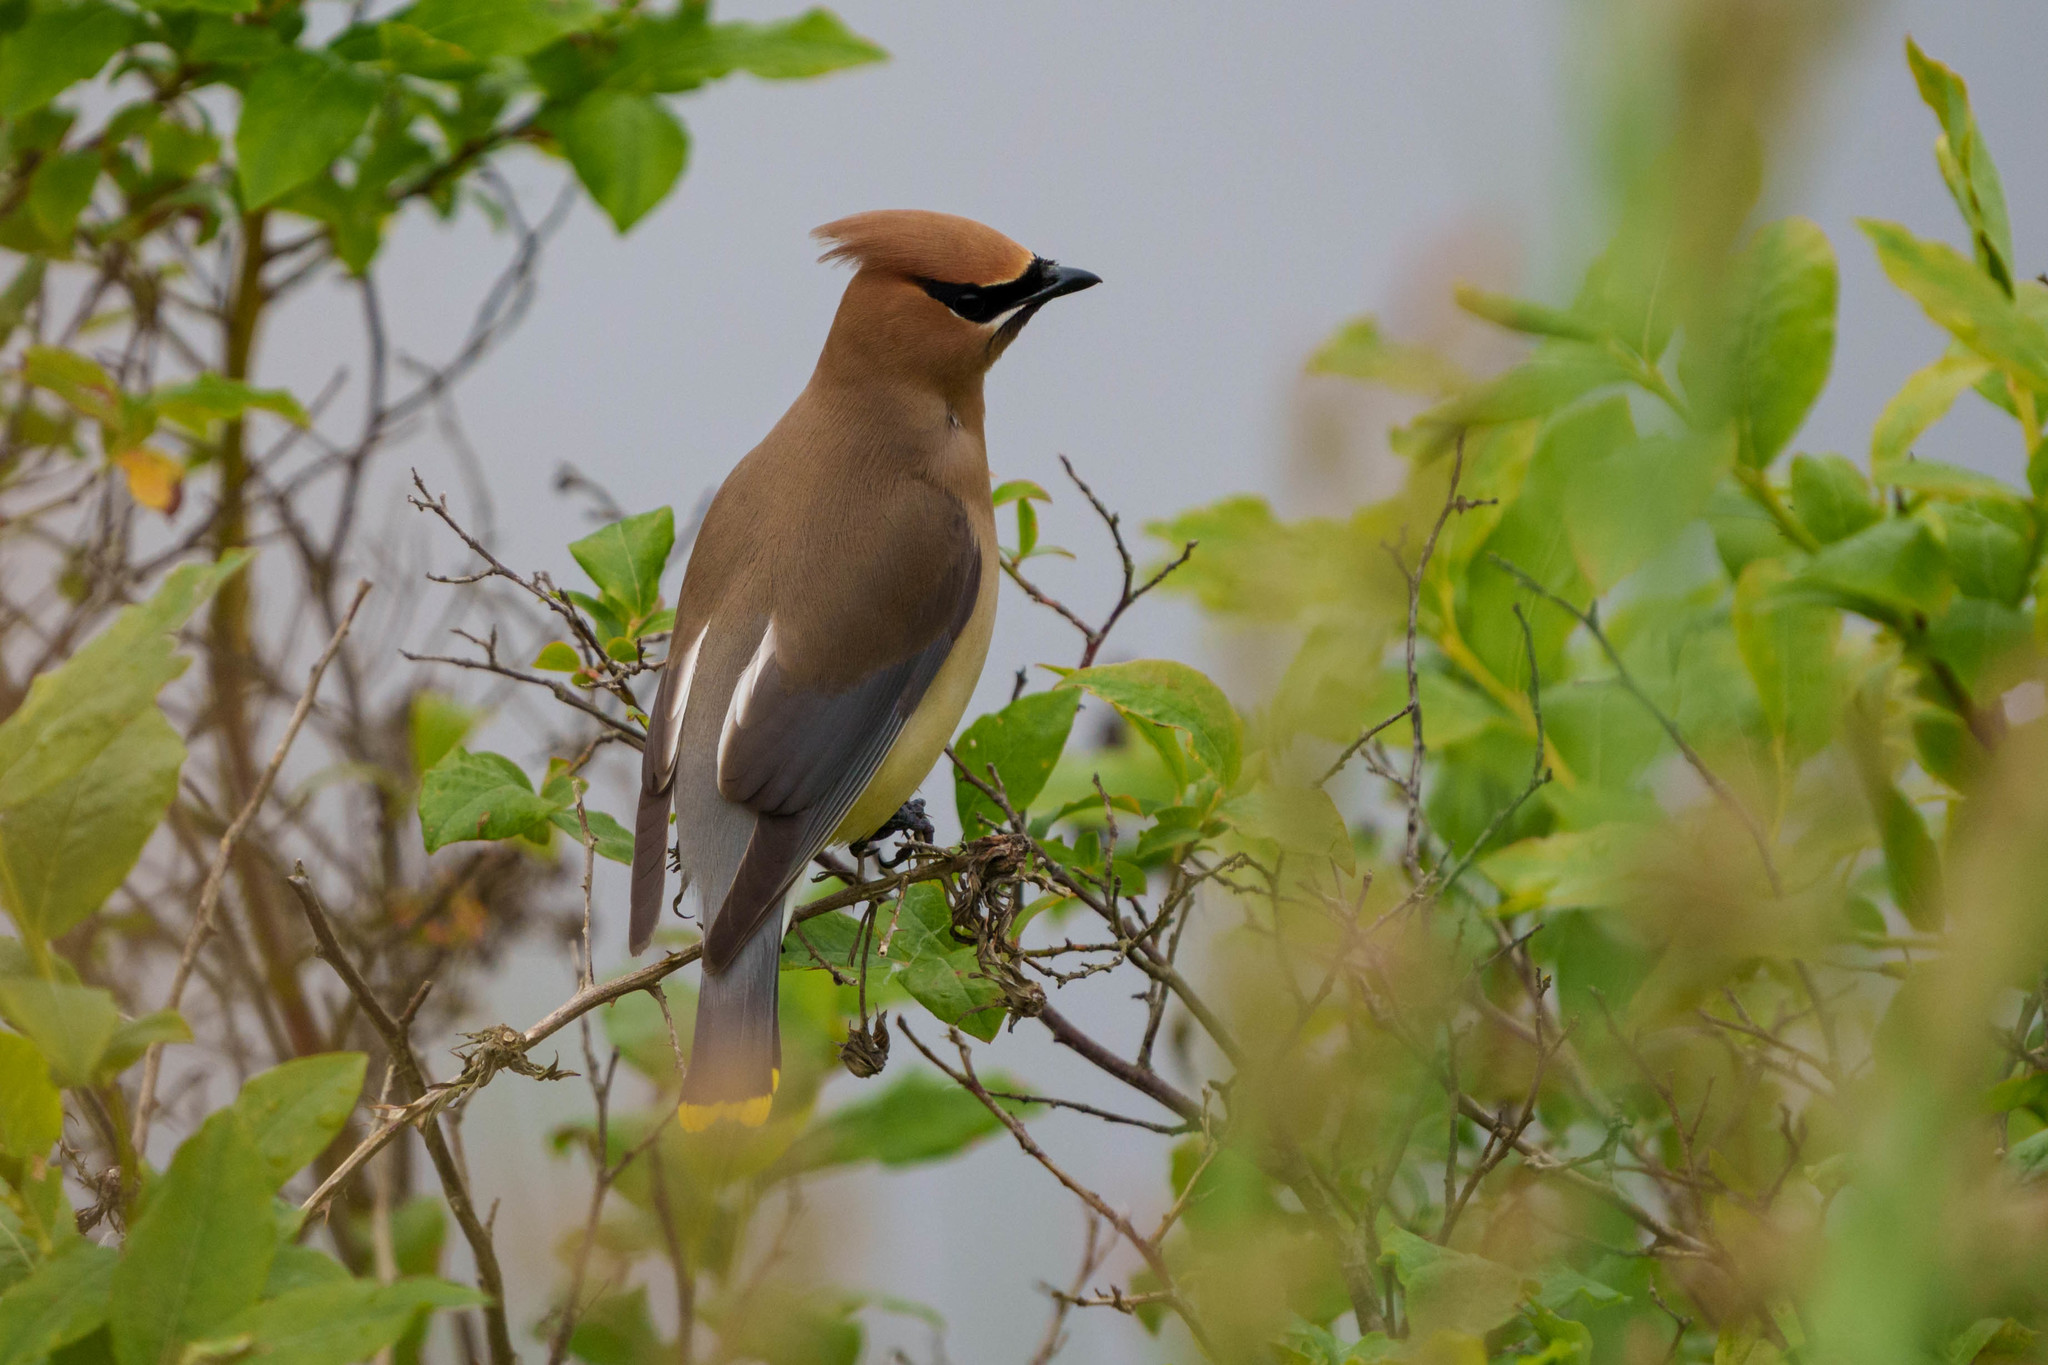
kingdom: Animalia
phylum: Chordata
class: Aves
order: Passeriformes
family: Bombycillidae
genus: Bombycilla
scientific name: Bombycilla cedrorum
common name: Cedar waxwing
